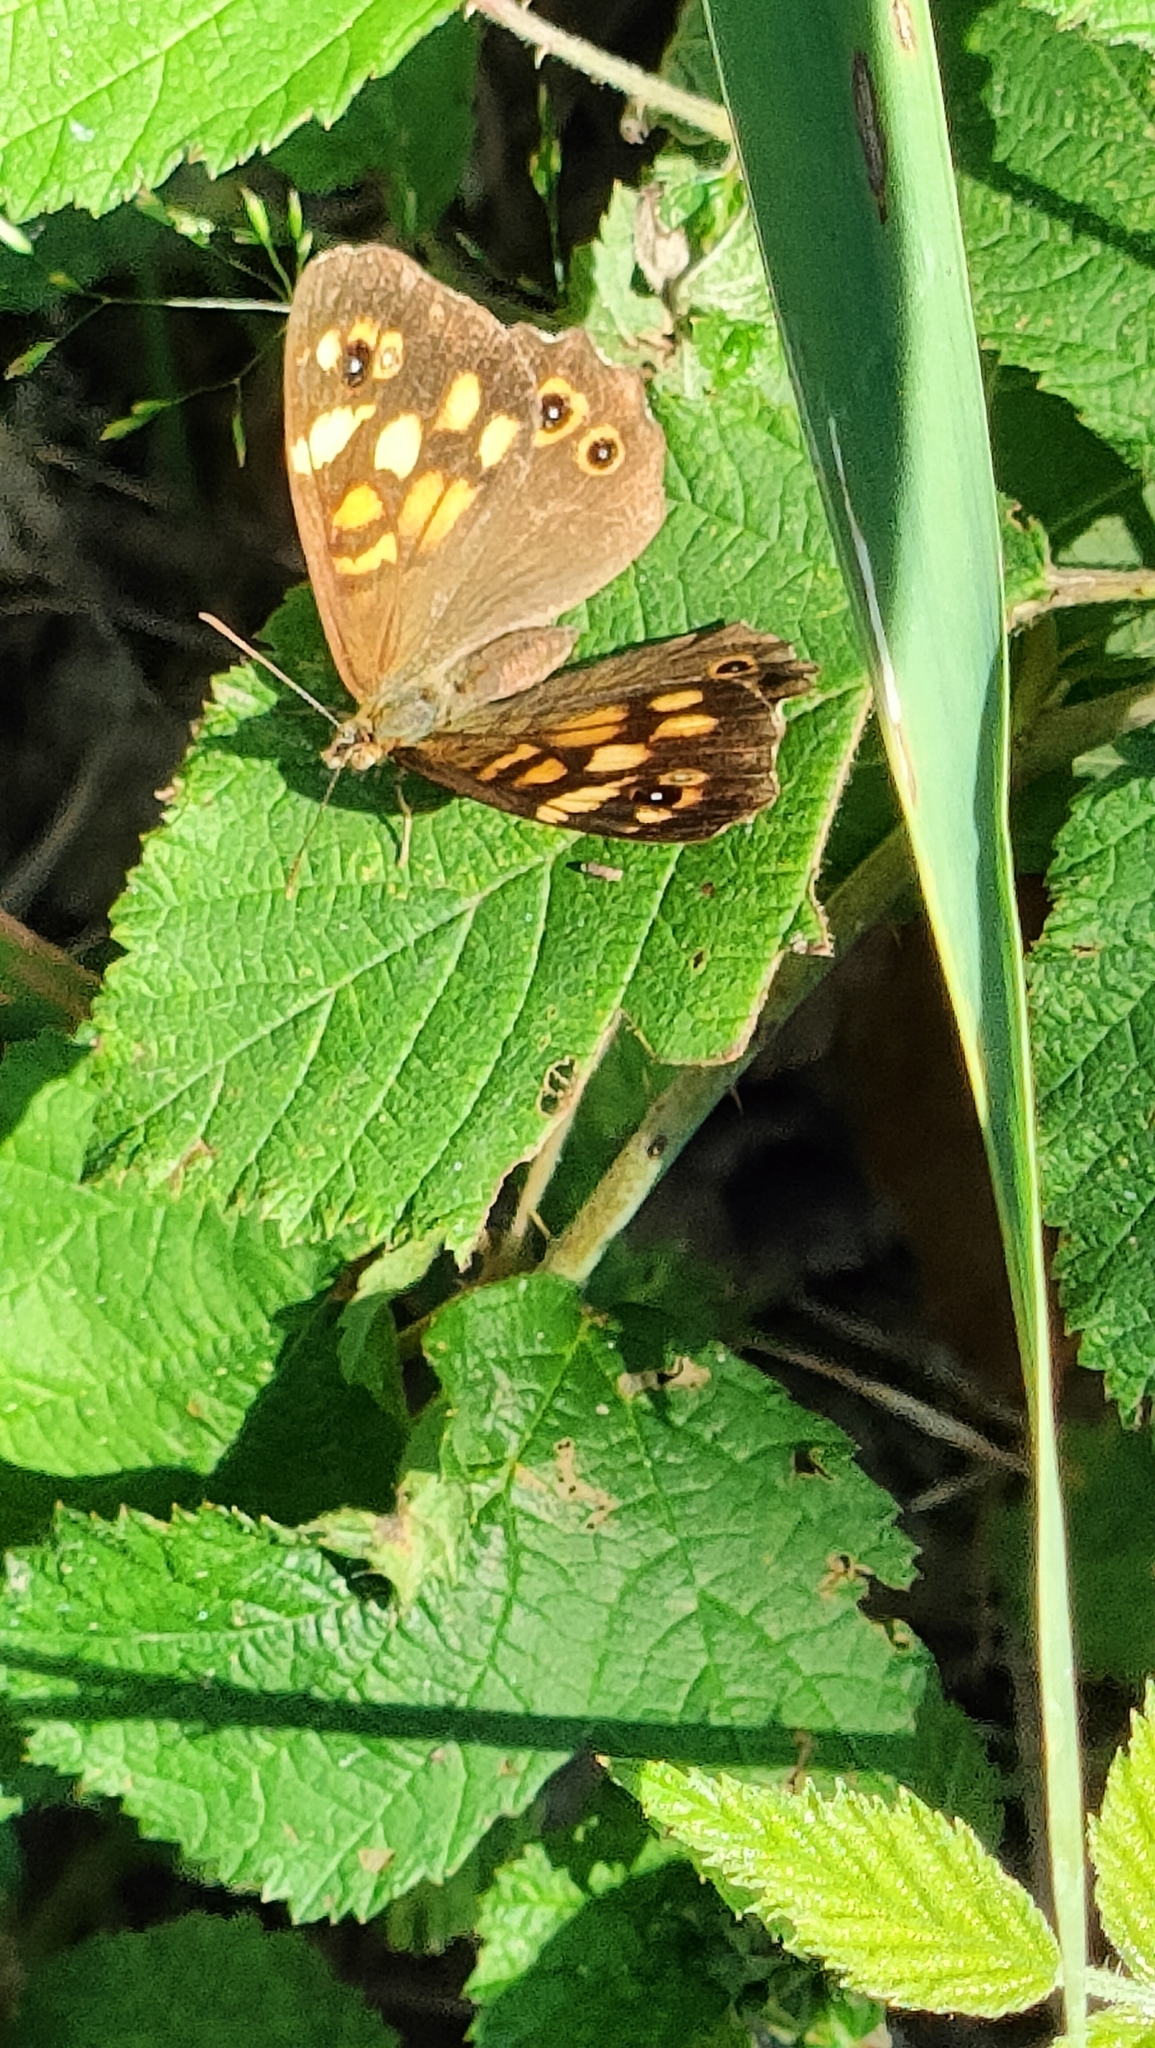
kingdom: Animalia
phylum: Arthropoda
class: Insecta
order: Lepidoptera
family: Nymphalidae
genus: Pararge
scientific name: Pararge aegeria
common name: Speckled wood
